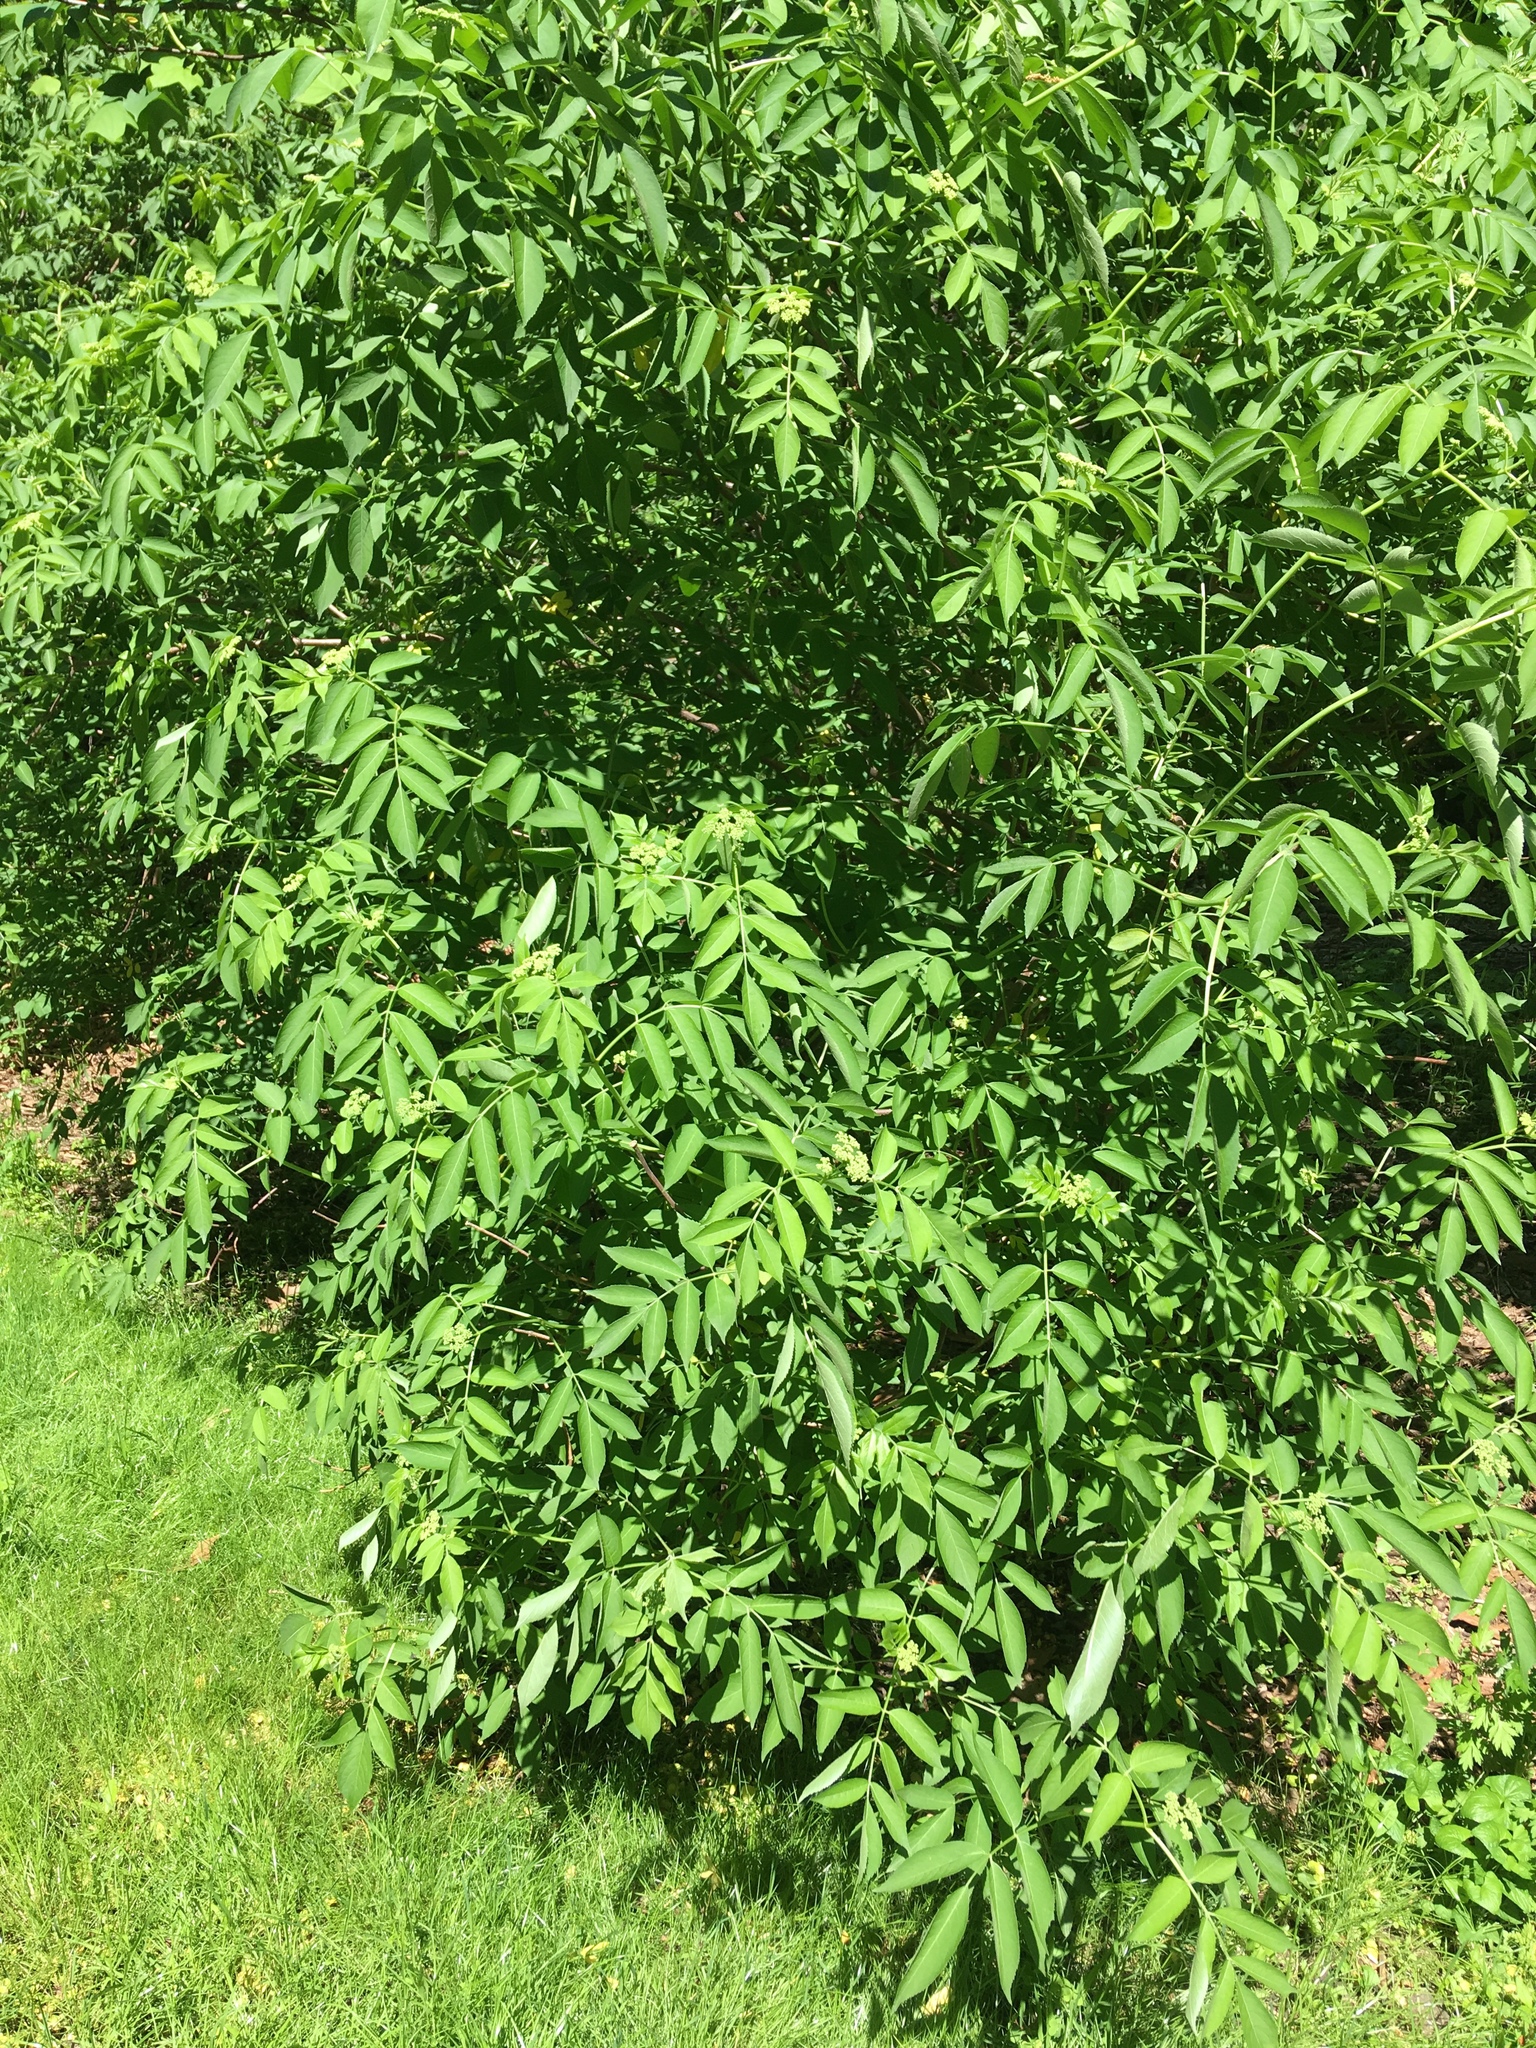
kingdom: Plantae
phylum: Tracheophyta
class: Magnoliopsida
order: Dipsacales
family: Viburnaceae
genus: Sambucus
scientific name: Sambucus canadensis
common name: American elder
